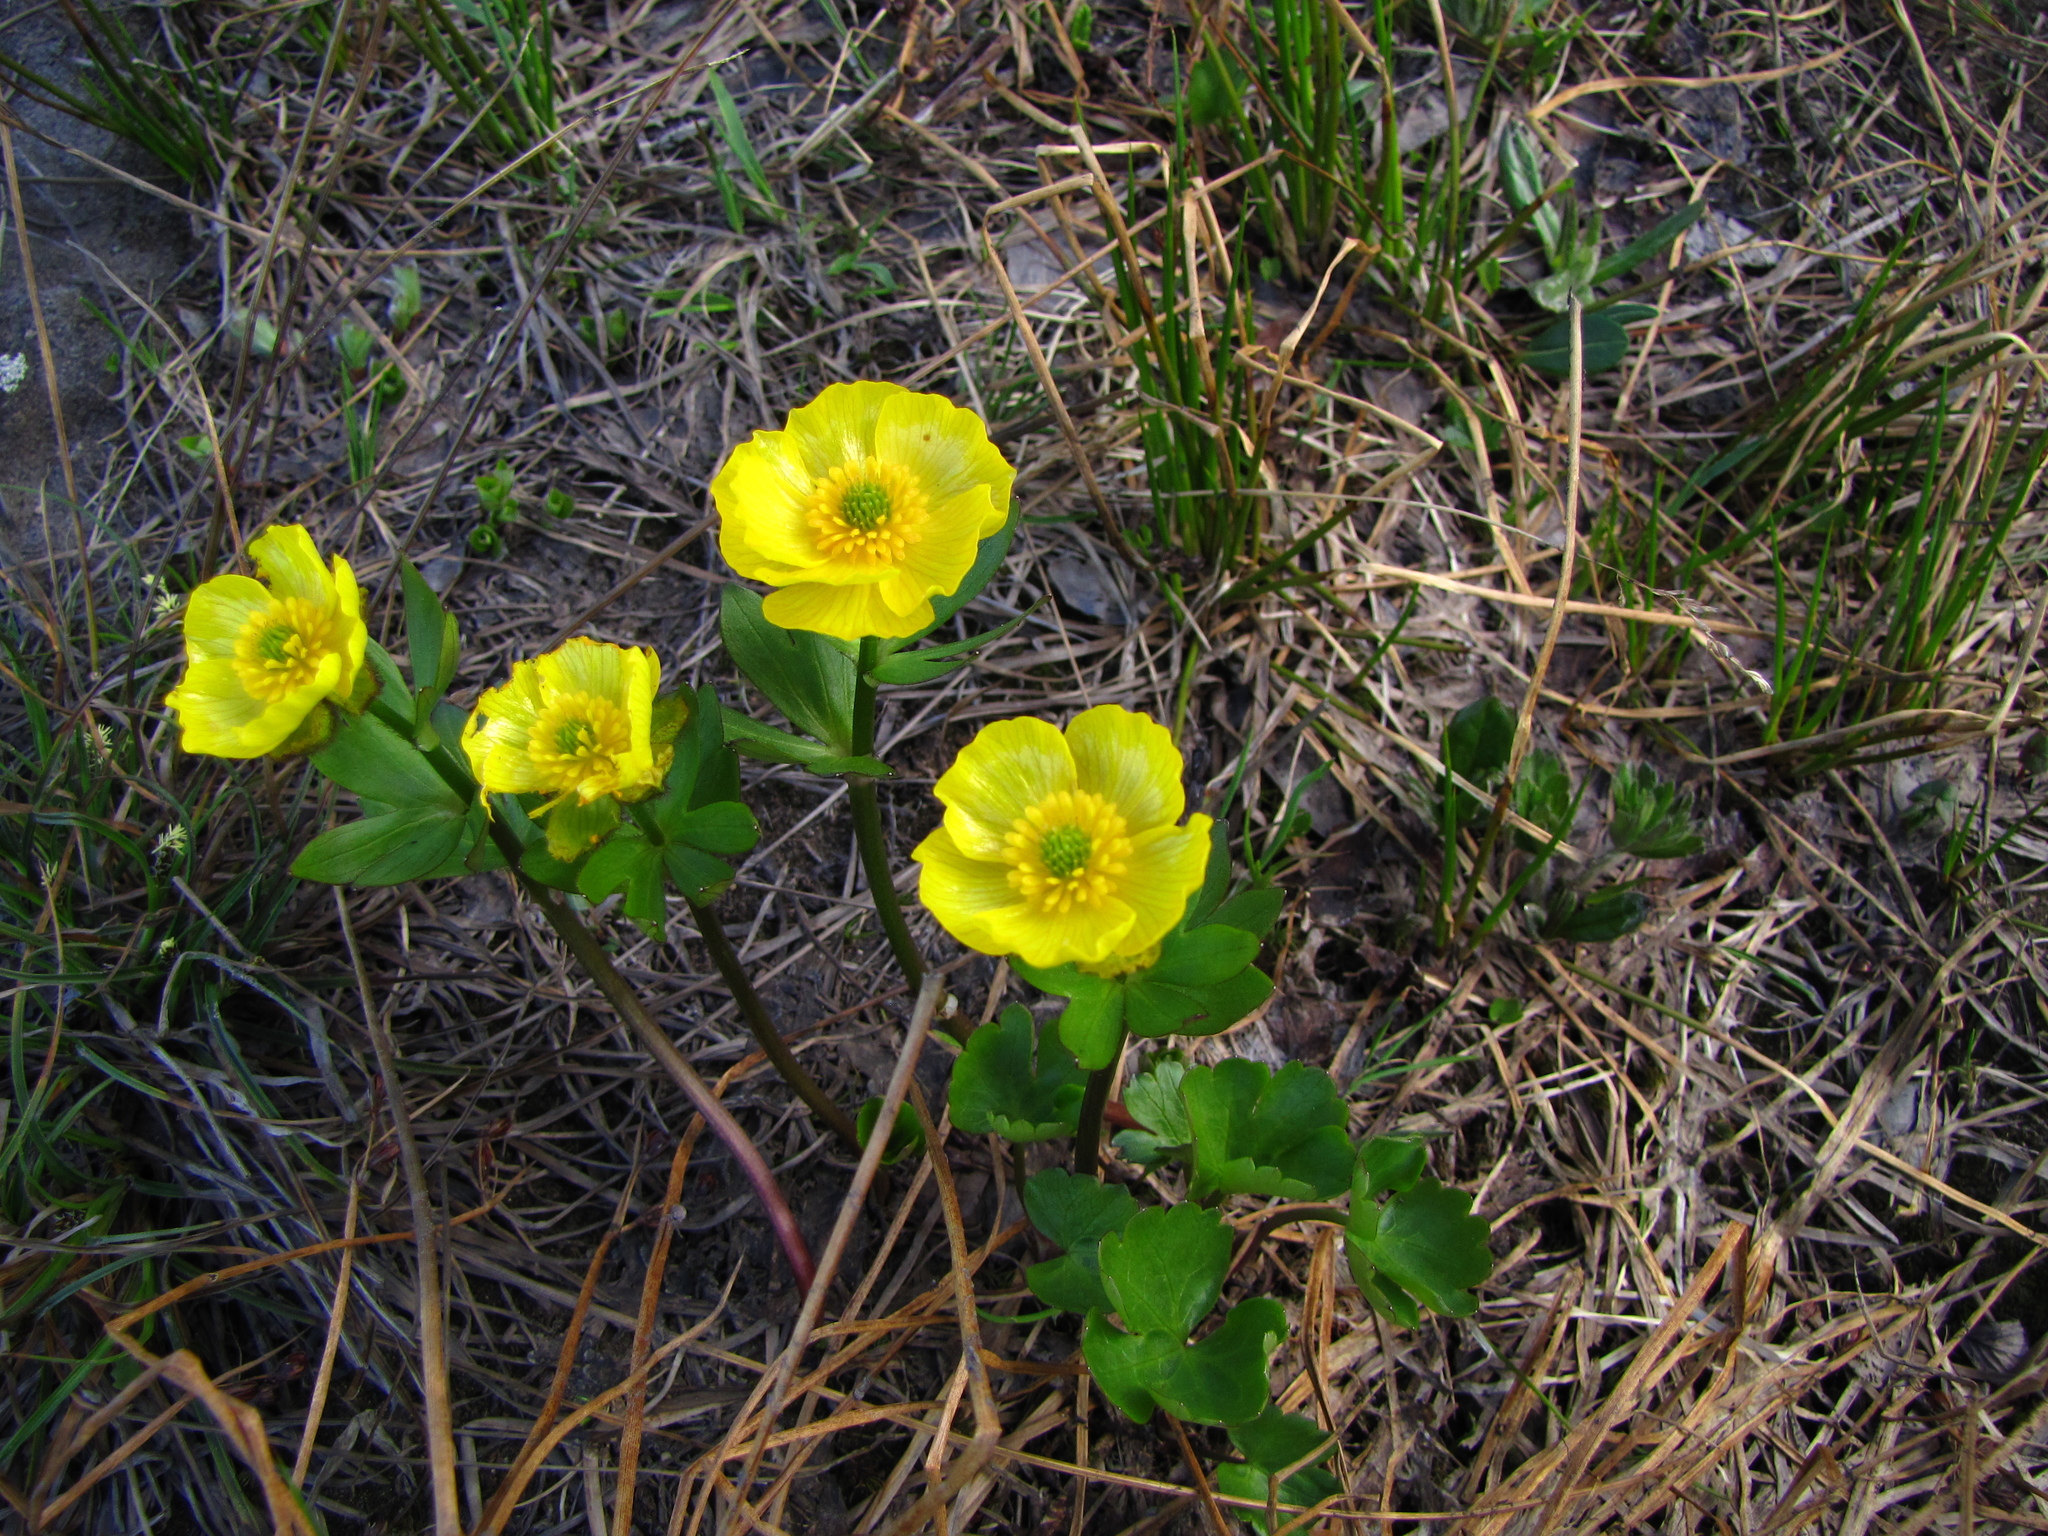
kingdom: Plantae
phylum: Tracheophyta
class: Magnoliopsida
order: Ranunculales
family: Ranunculaceae
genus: Ranunculus
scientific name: Ranunculus sulphureus
